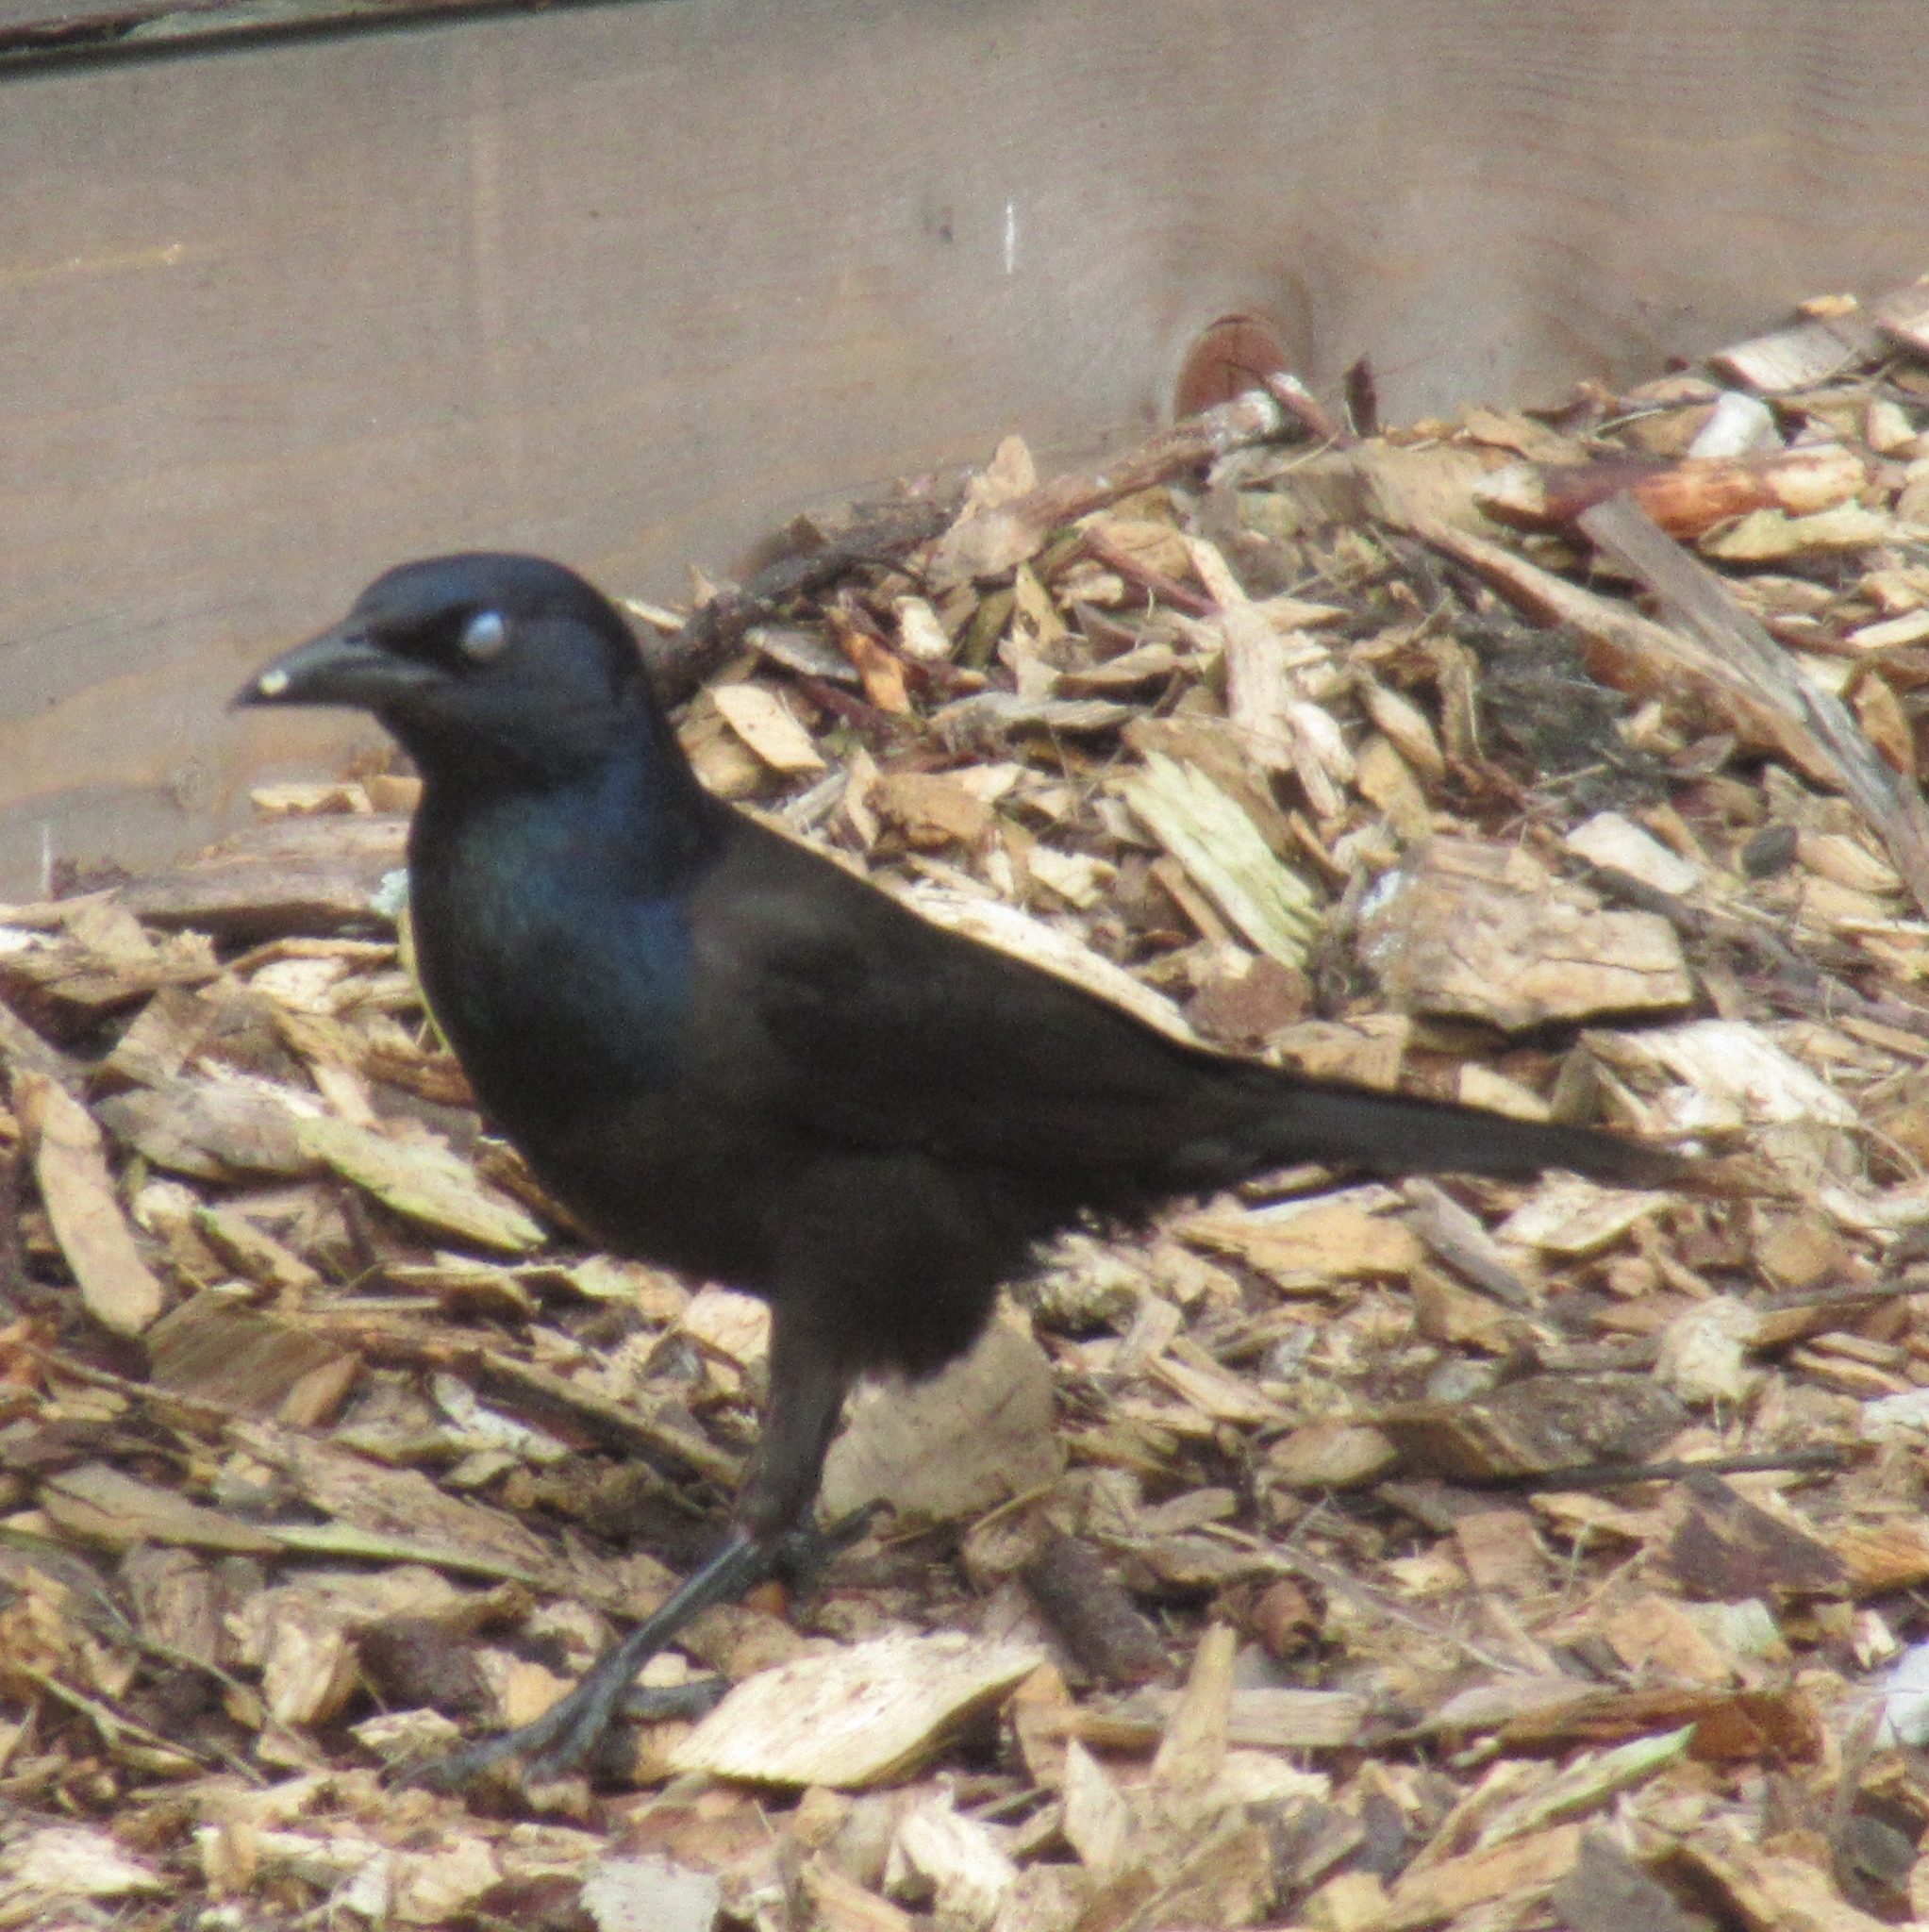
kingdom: Animalia
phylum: Chordata
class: Aves
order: Passeriformes
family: Icteridae
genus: Quiscalus
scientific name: Quiscalus quiscula
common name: Common grackle
